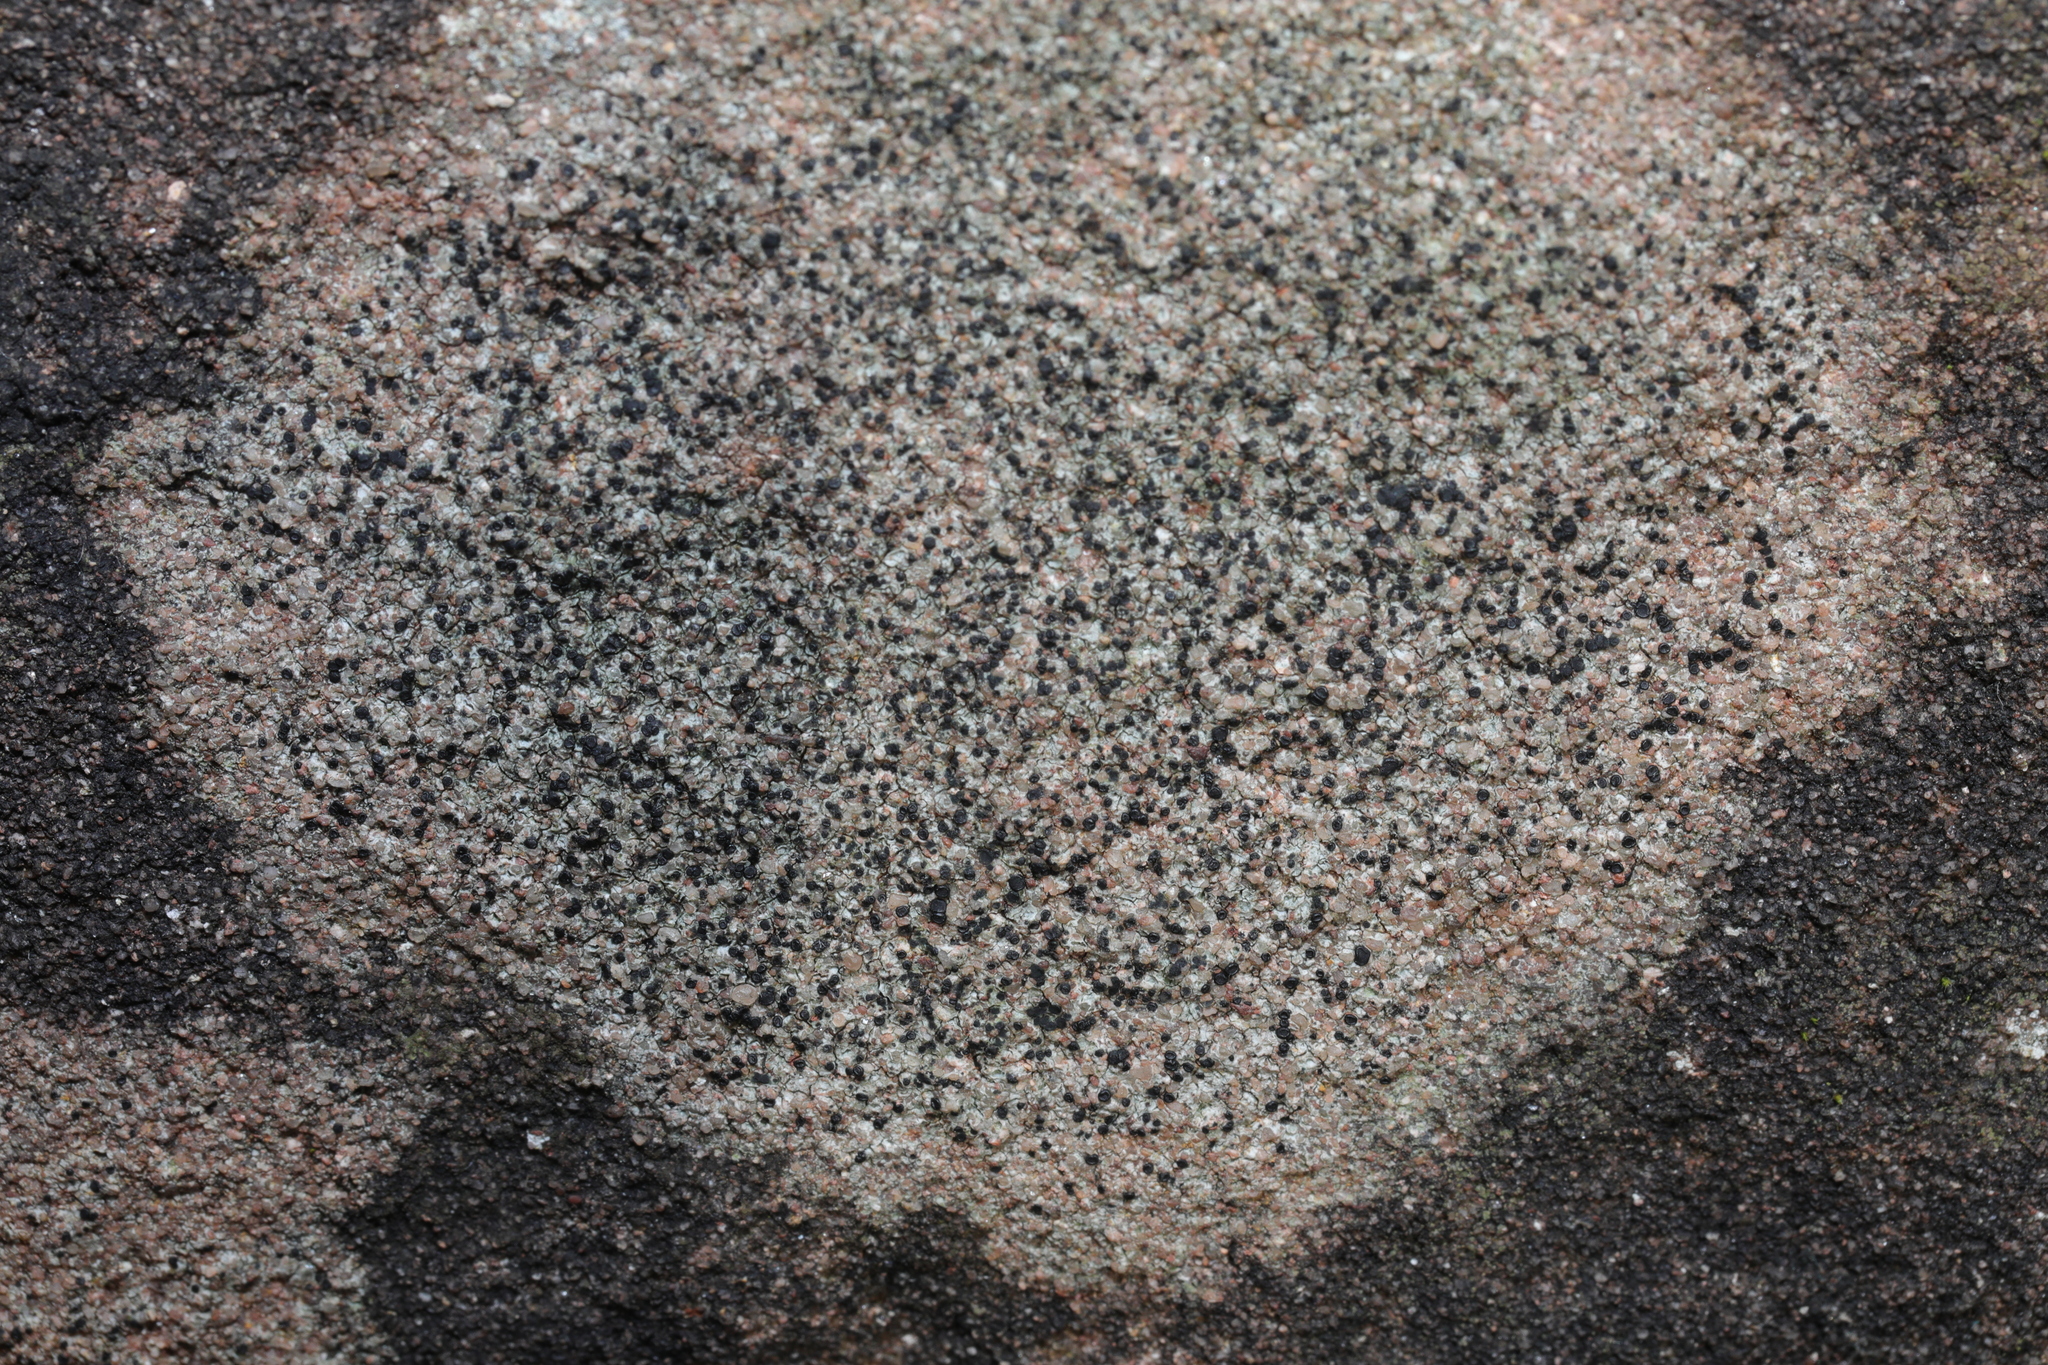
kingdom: Fungi
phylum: Ascomycota
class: Lecanoromycetes
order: Lecanorales
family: Lecanoraceae
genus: Lecidella
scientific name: Lecidella stigmatea
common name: Limestone disc lichen
